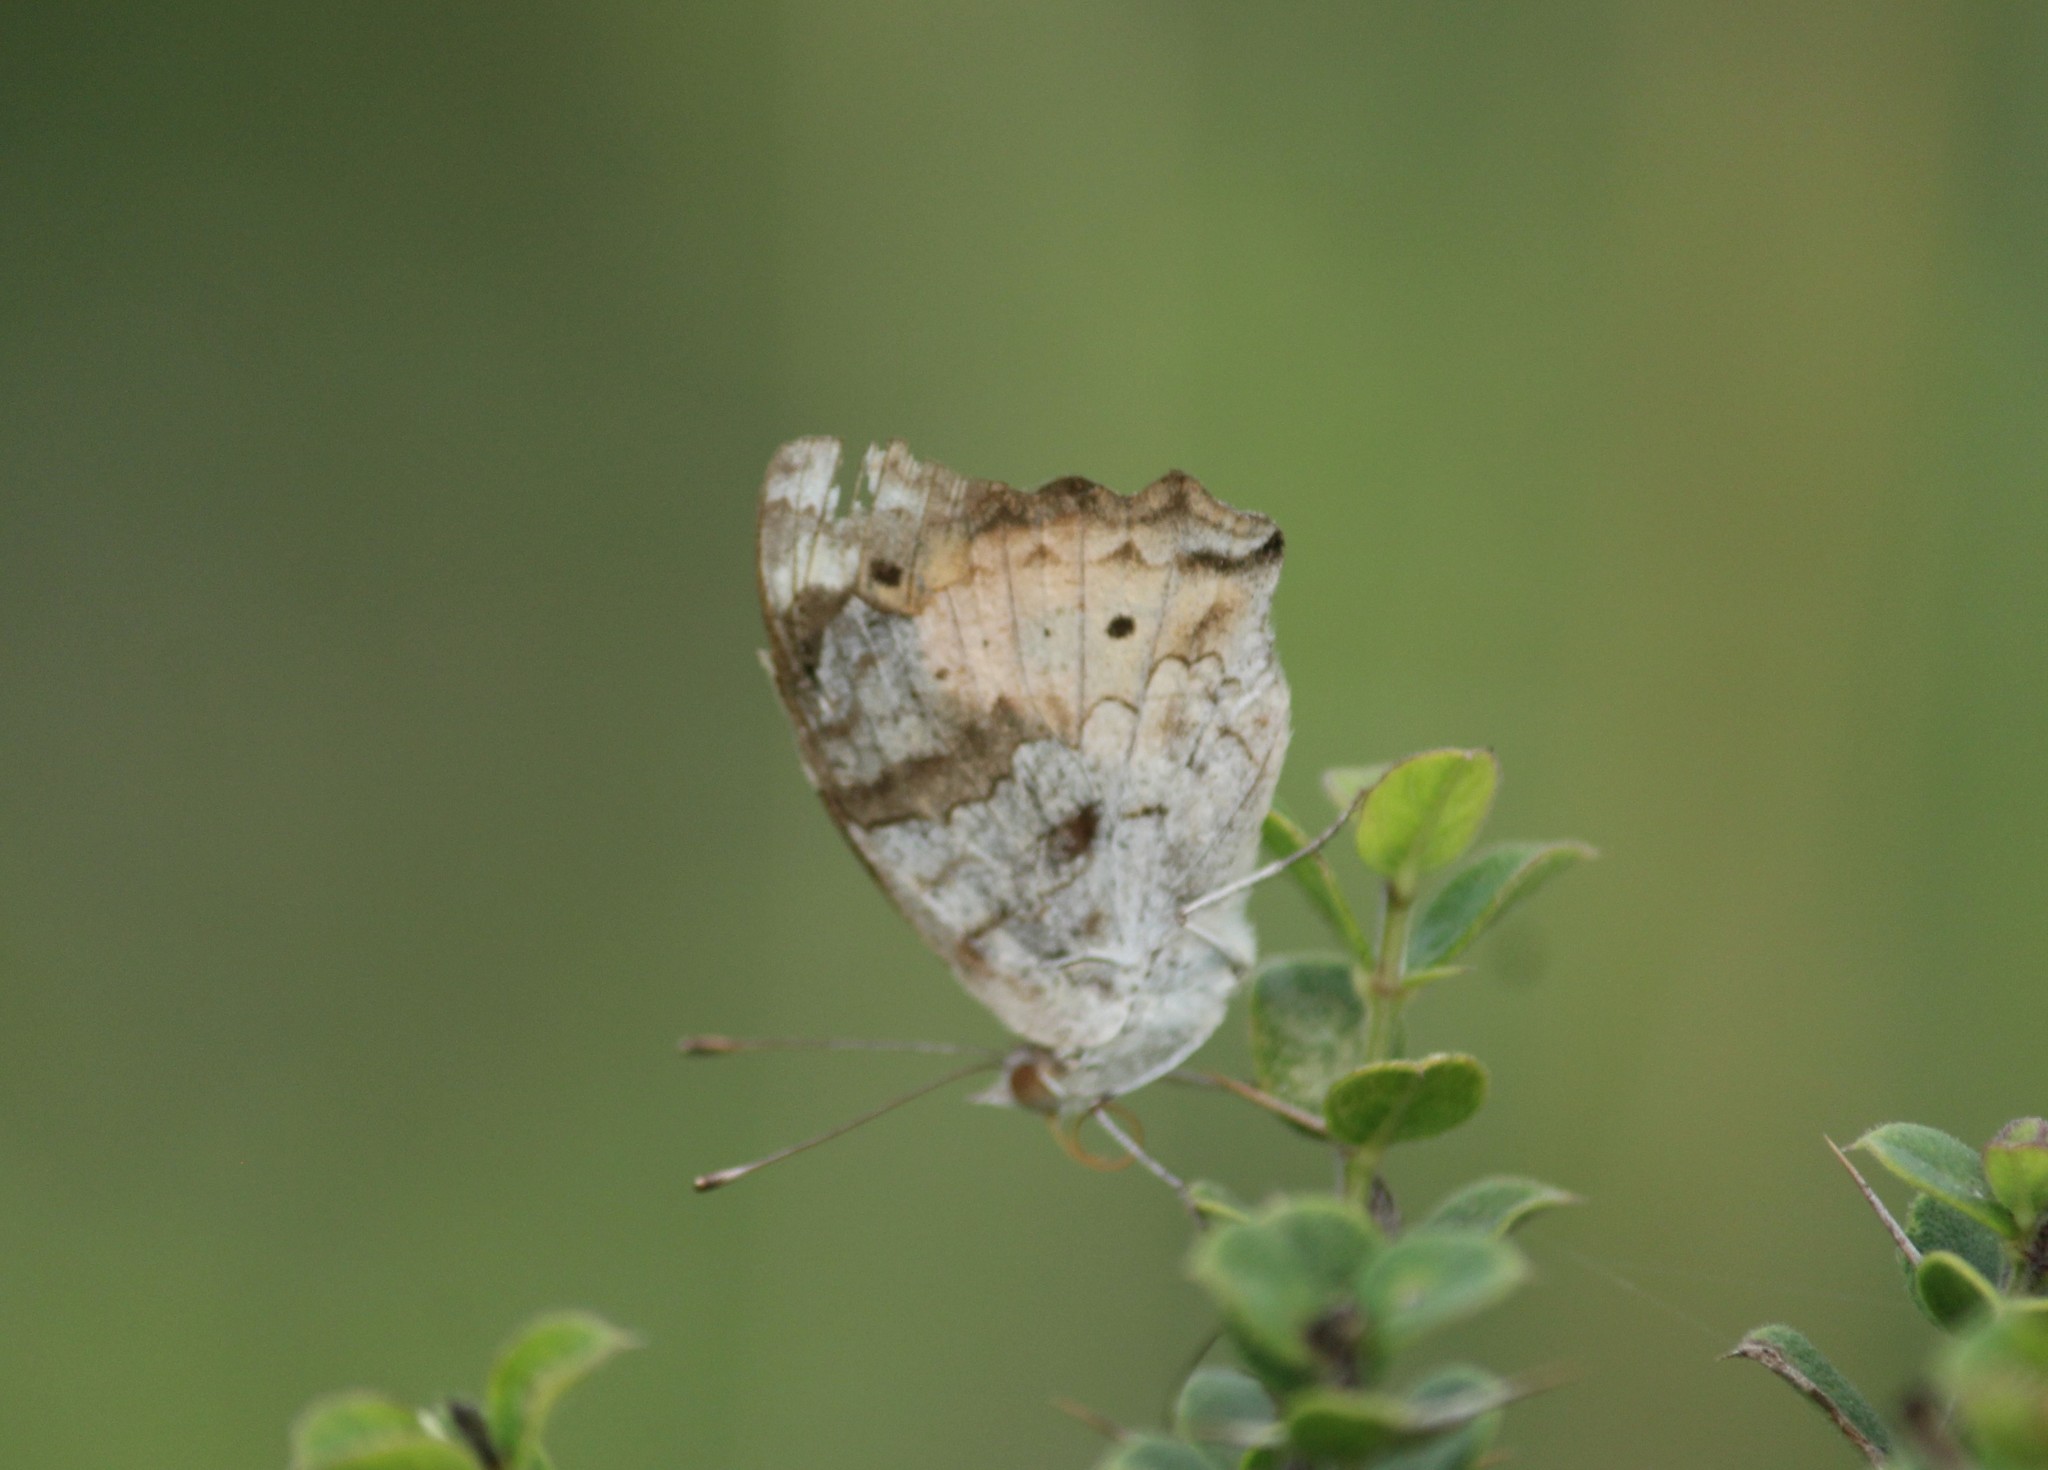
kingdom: Animalia
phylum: Arthropoda
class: Insecta
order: Lepidoptera
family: Nymphalidae
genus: Junonia
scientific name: Junonia hierta
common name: Yellow pansy
